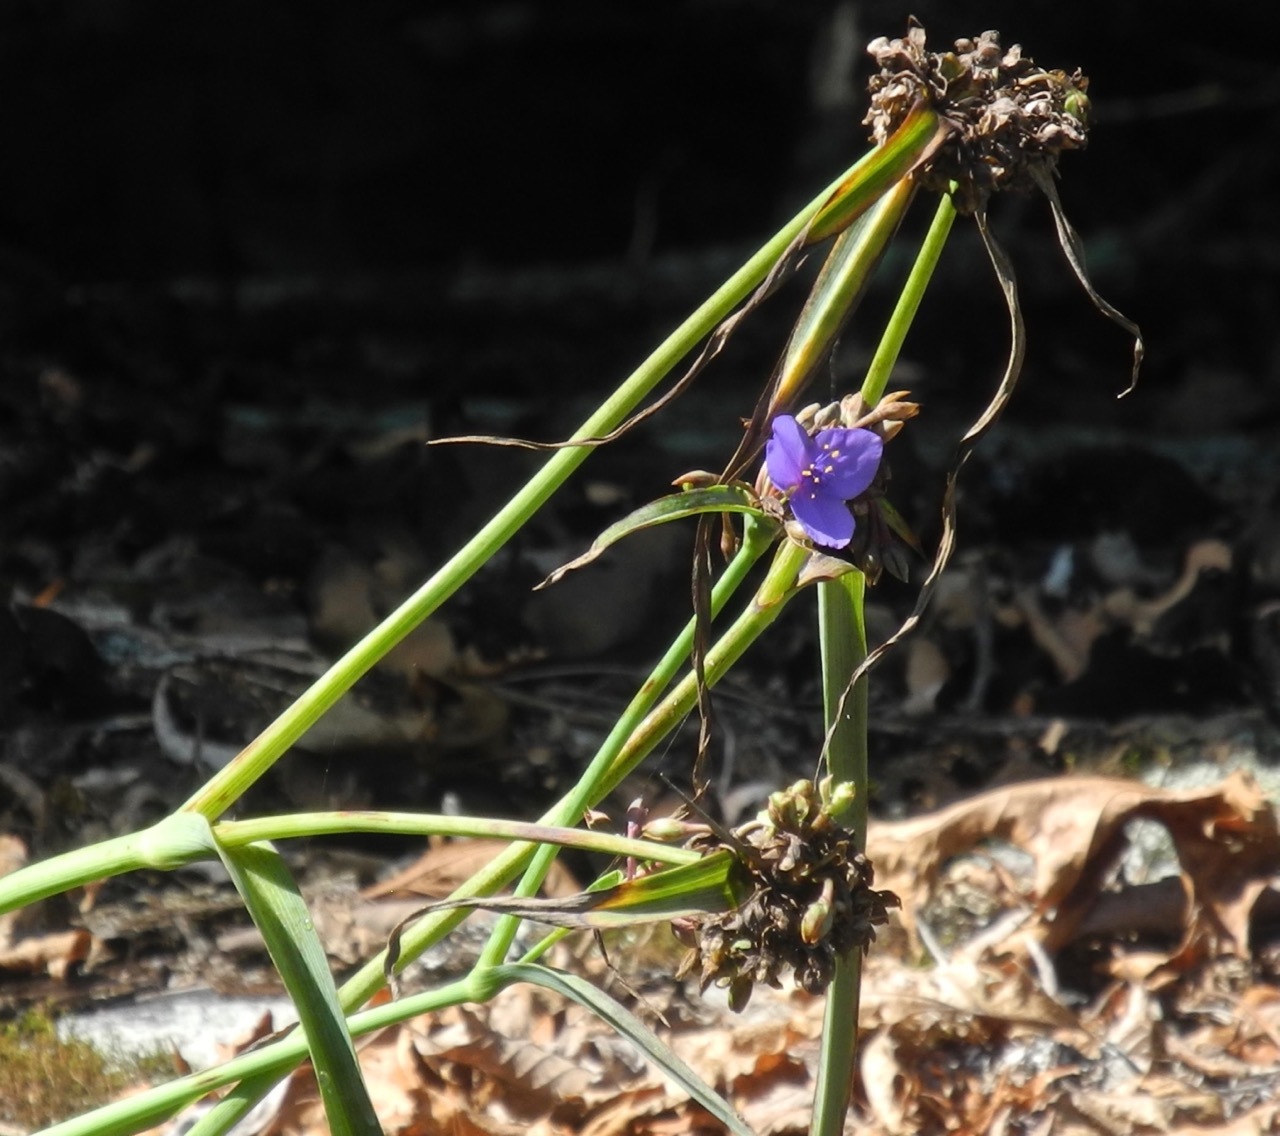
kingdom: Plantae
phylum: Tracheophyta
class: Liliopsida
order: Commelinales
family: Commelinaceae
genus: Tradescantia
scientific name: Tradescantia ohiensis
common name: Ohio spiderwort
